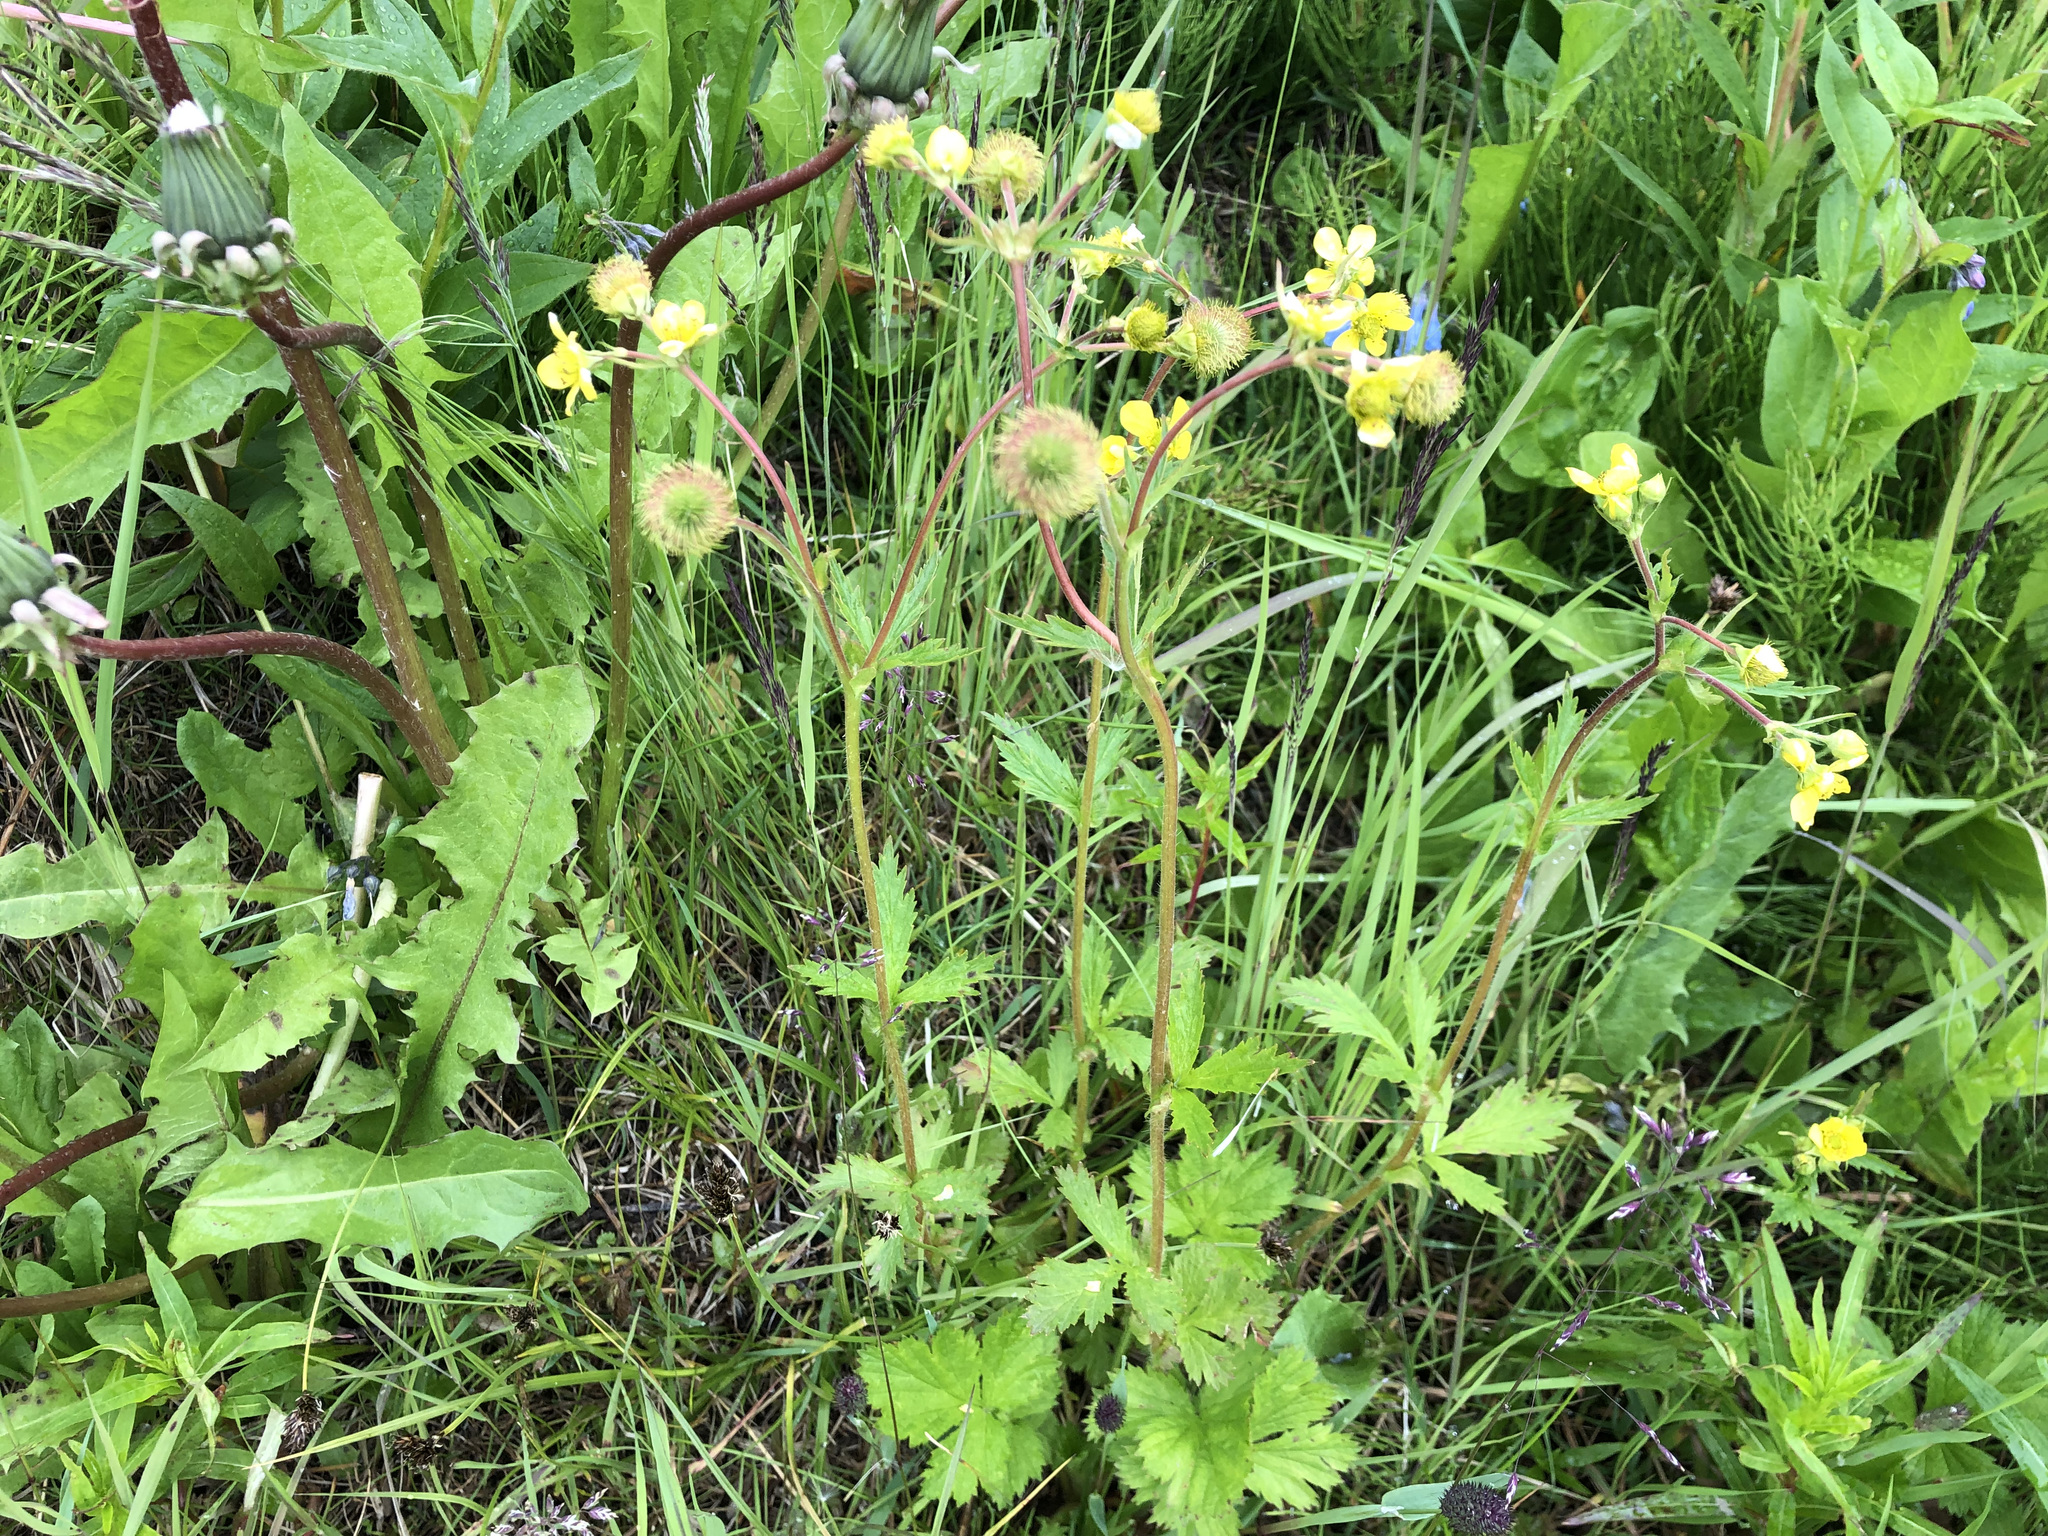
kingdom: Plantae
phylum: Tracheophyta
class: Magnoliopsida
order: Rosales
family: Rosaceae
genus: Geum
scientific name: Geum macrophyllum
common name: Large-leaved avens
